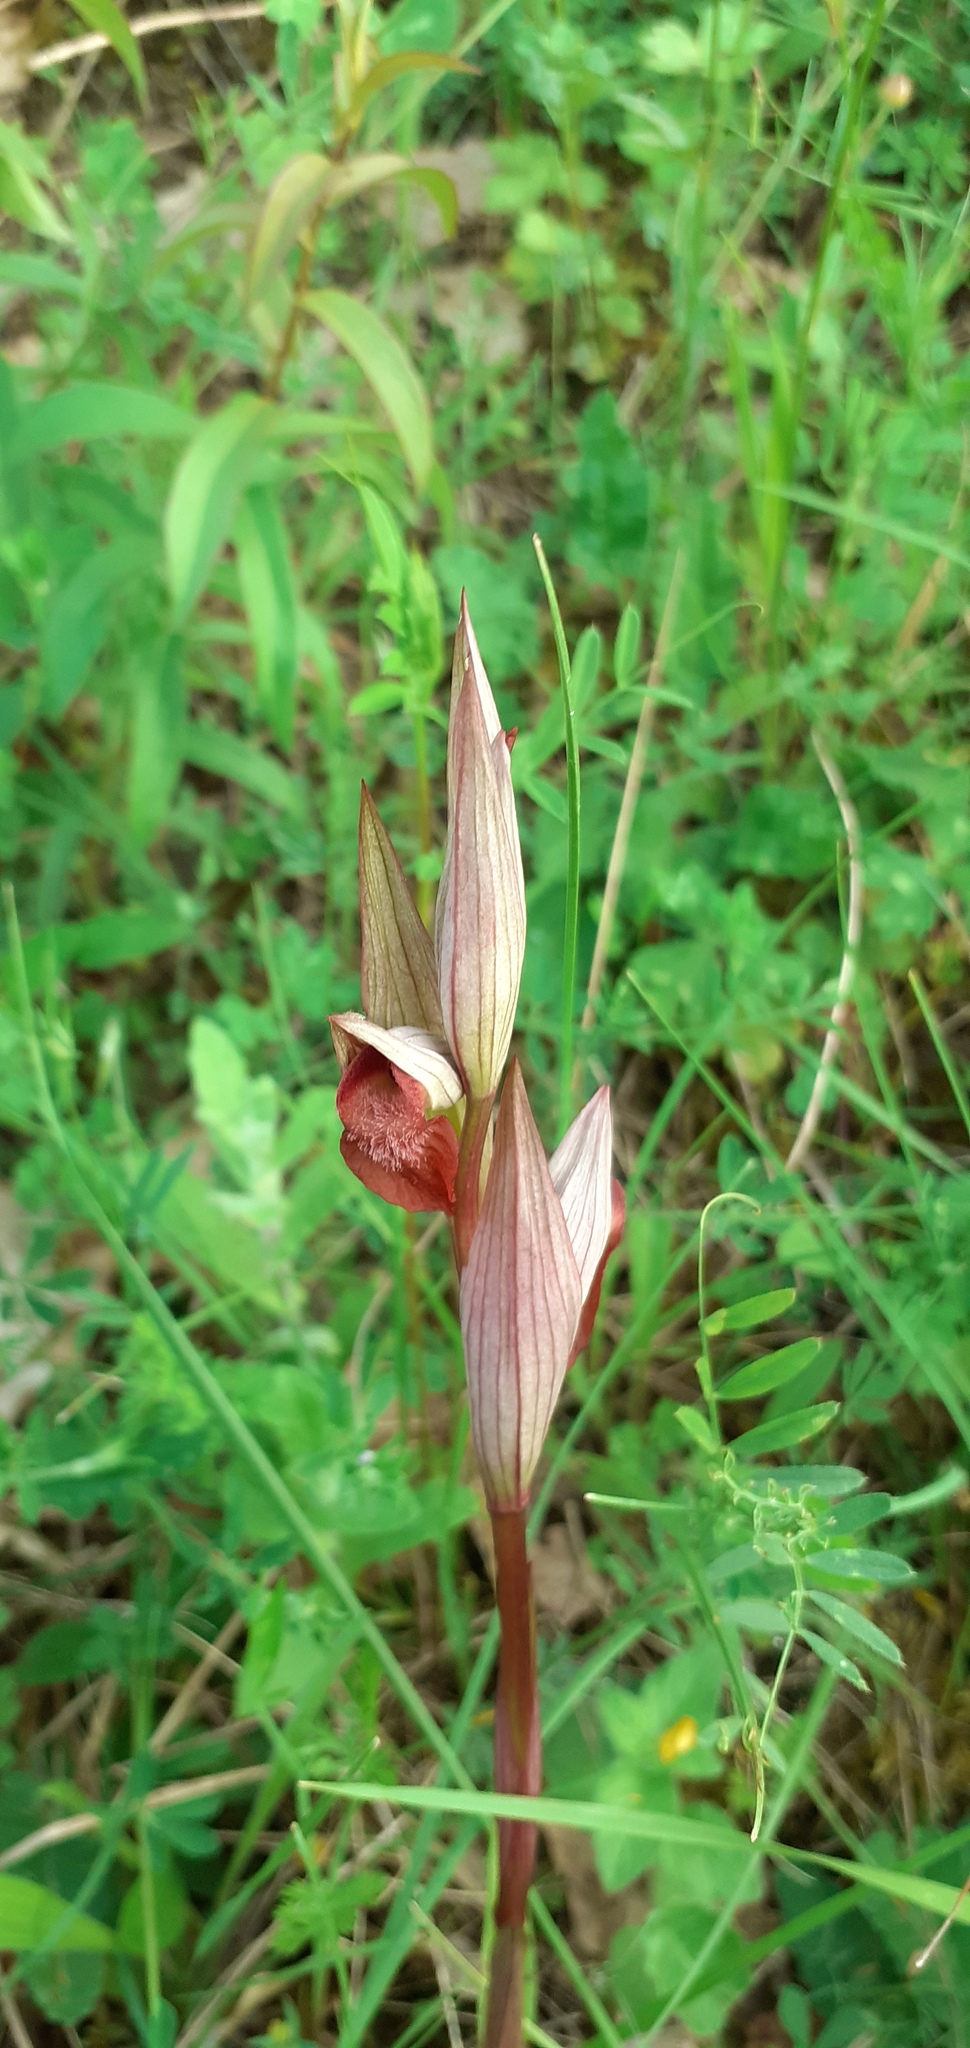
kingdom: Plantae
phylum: Tracheophyta
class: Liliopsida
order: Asparagales
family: Orchidaceae
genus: Serapias
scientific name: Serapias vomeracea
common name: Long-lipped tongue-orchid
